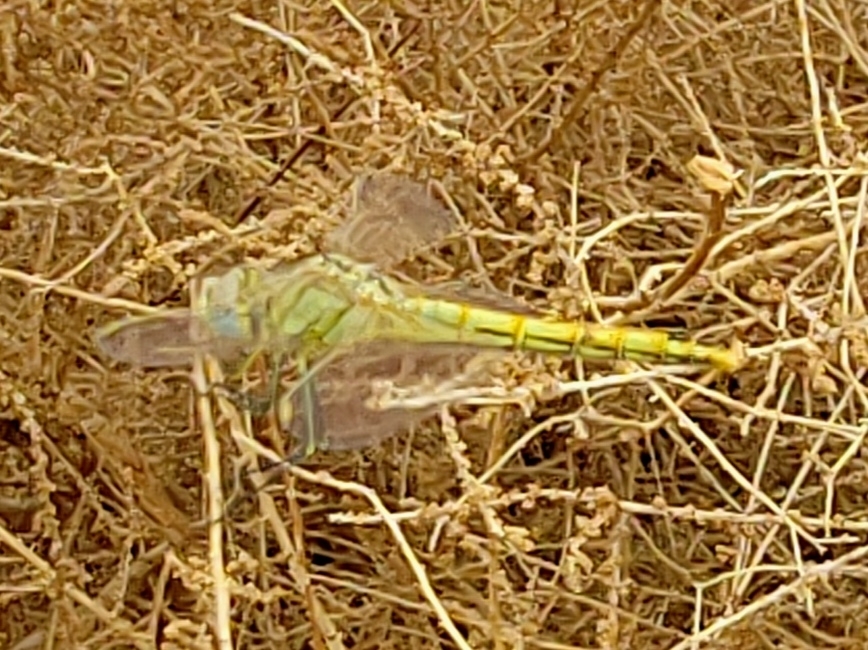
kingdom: Animalia
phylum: Arthropoda
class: Insecta
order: Odonata
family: Libellulidae
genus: Sympetrum
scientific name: Sympetrum fonscolombii
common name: Red-veined darter
